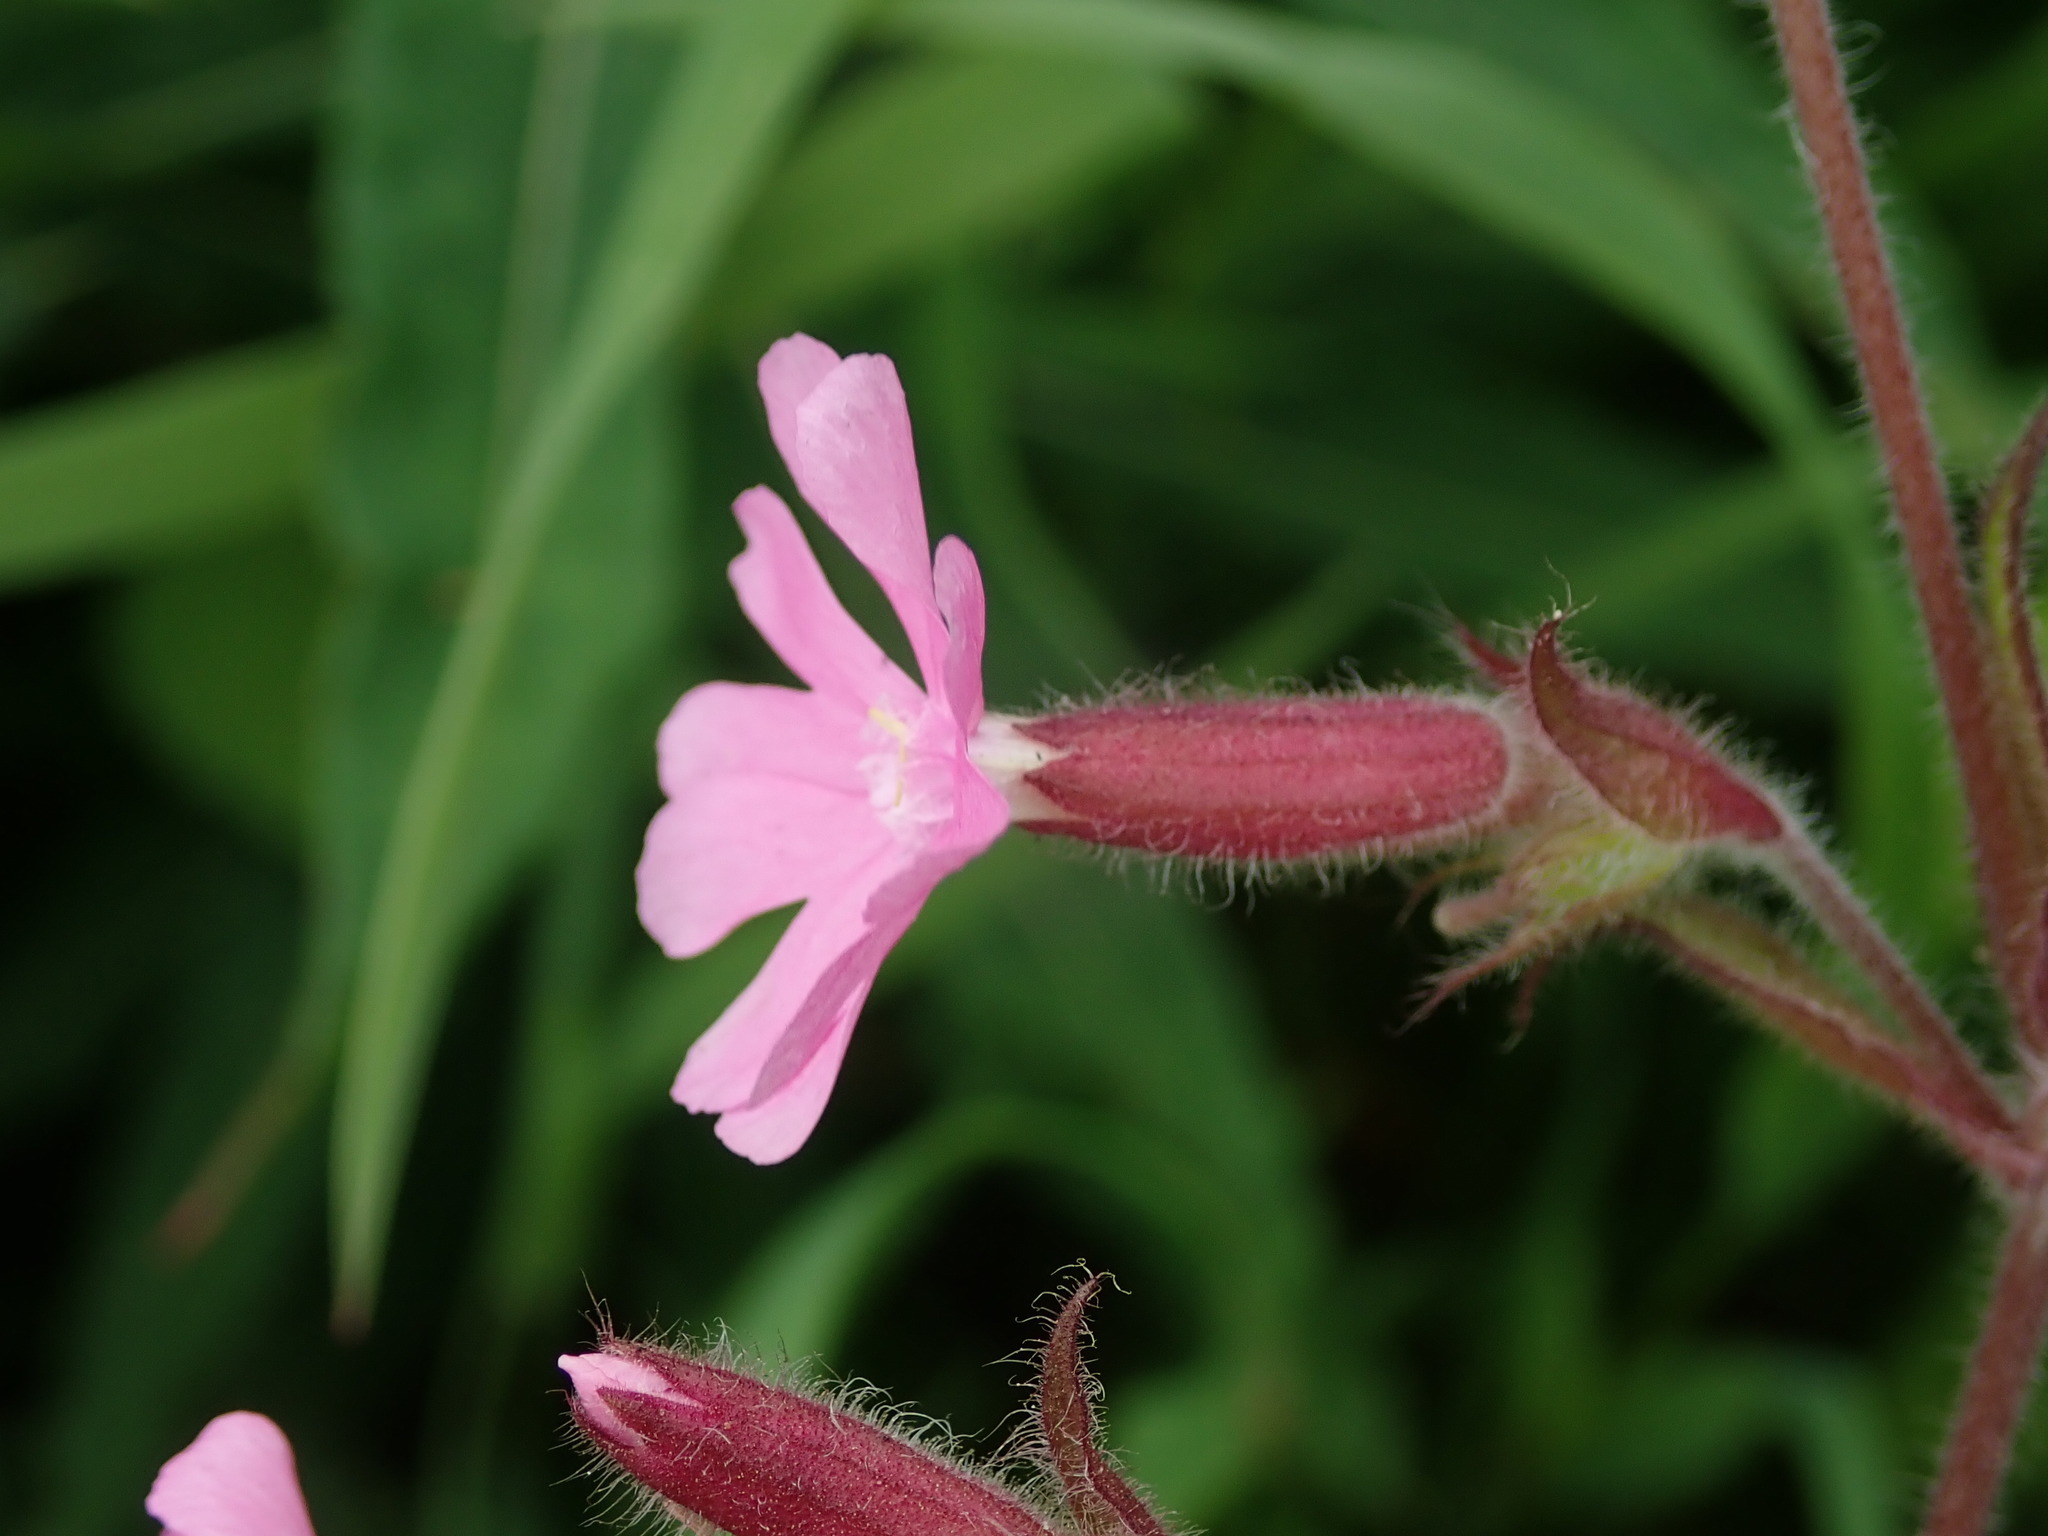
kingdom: Plantae
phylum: Tracheophyta
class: Magnoliopsida
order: Caryophyllales
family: Caryophyllaceae
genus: Silene
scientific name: Silene dioica
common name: Red campion
